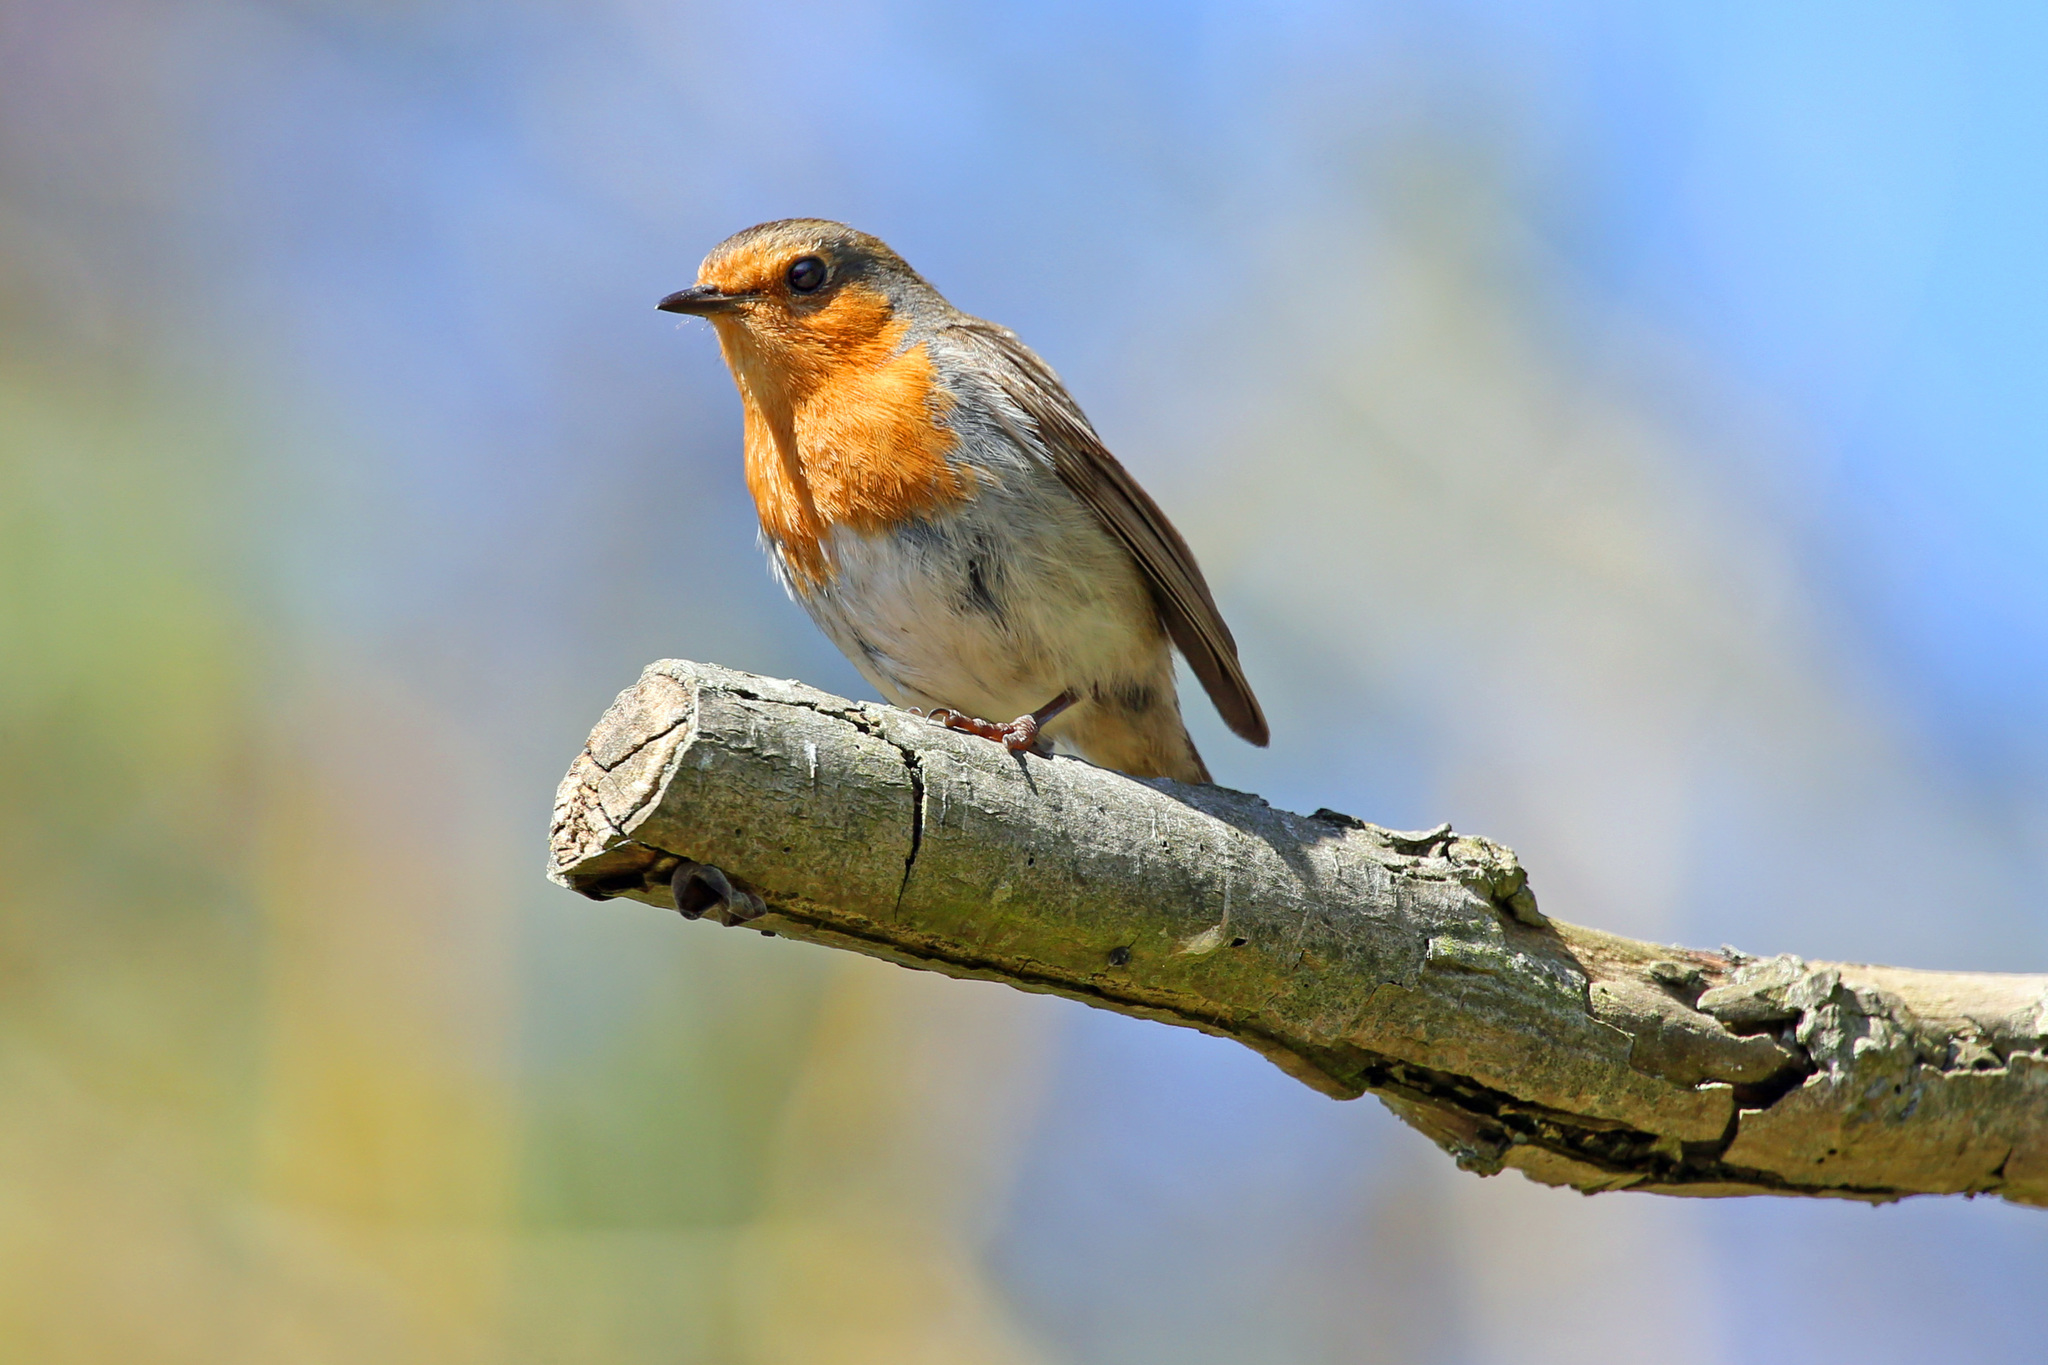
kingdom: Animalia
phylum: Chordata
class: Aves
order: Passeriformes
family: Muscicapidae
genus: Erithacus
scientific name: Erithacus rubecula
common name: European robin
